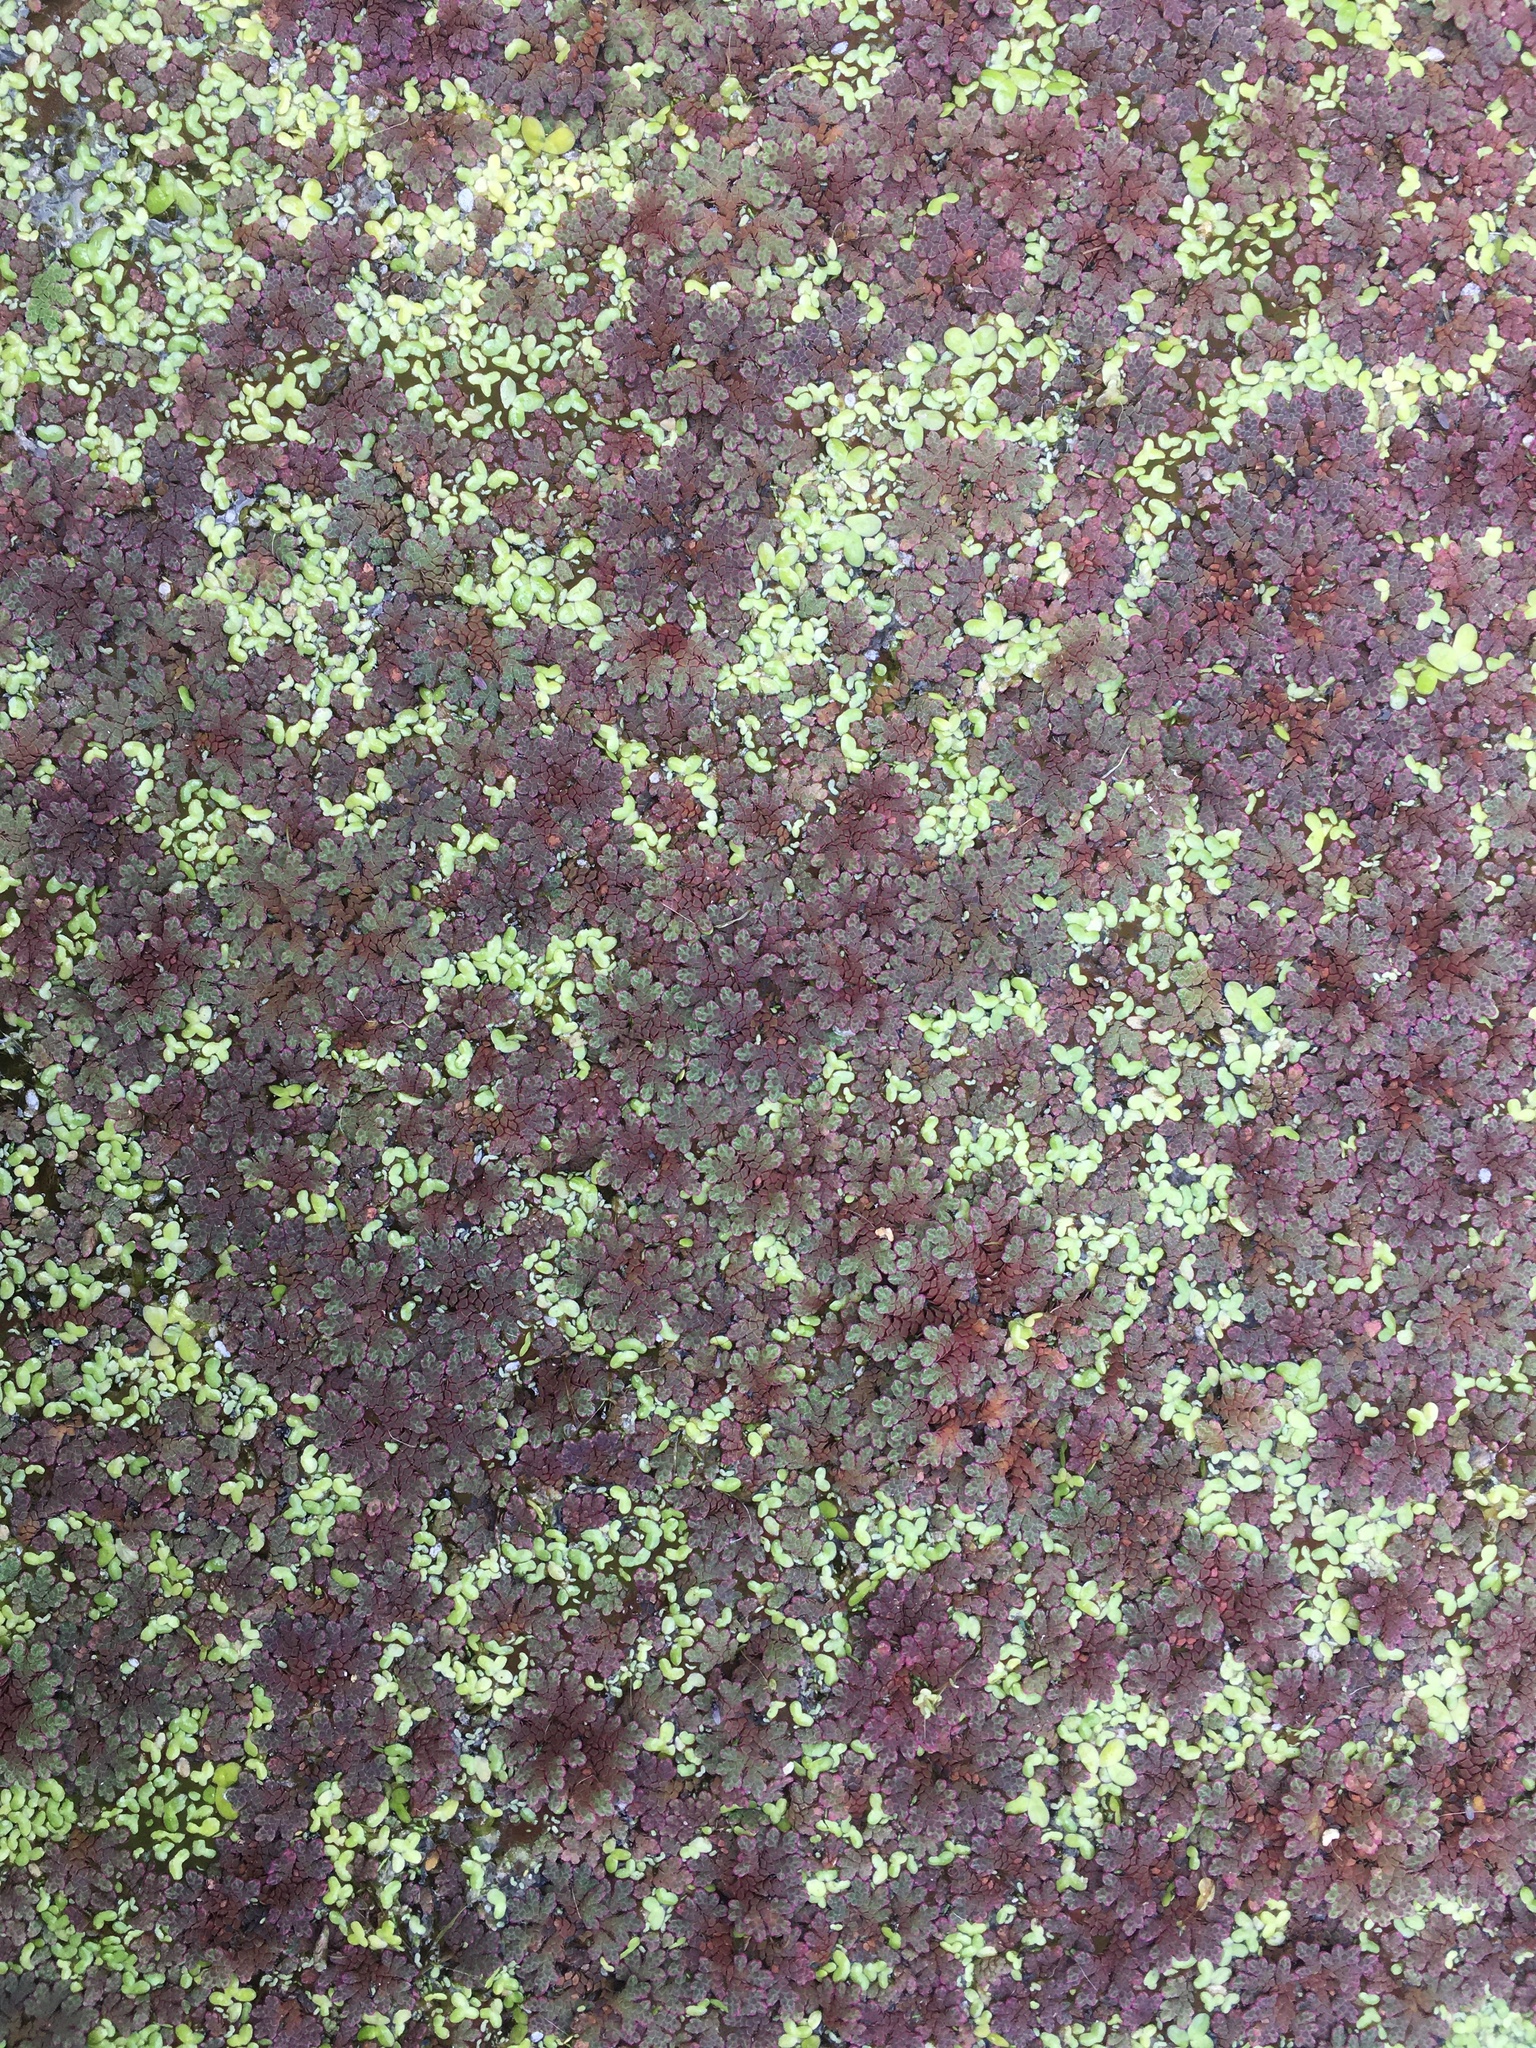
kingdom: Plantae
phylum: Tracheophyta
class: Polypodiopsida
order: Salviniales
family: Salviniaceae
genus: Azolla
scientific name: Azolla rubra
